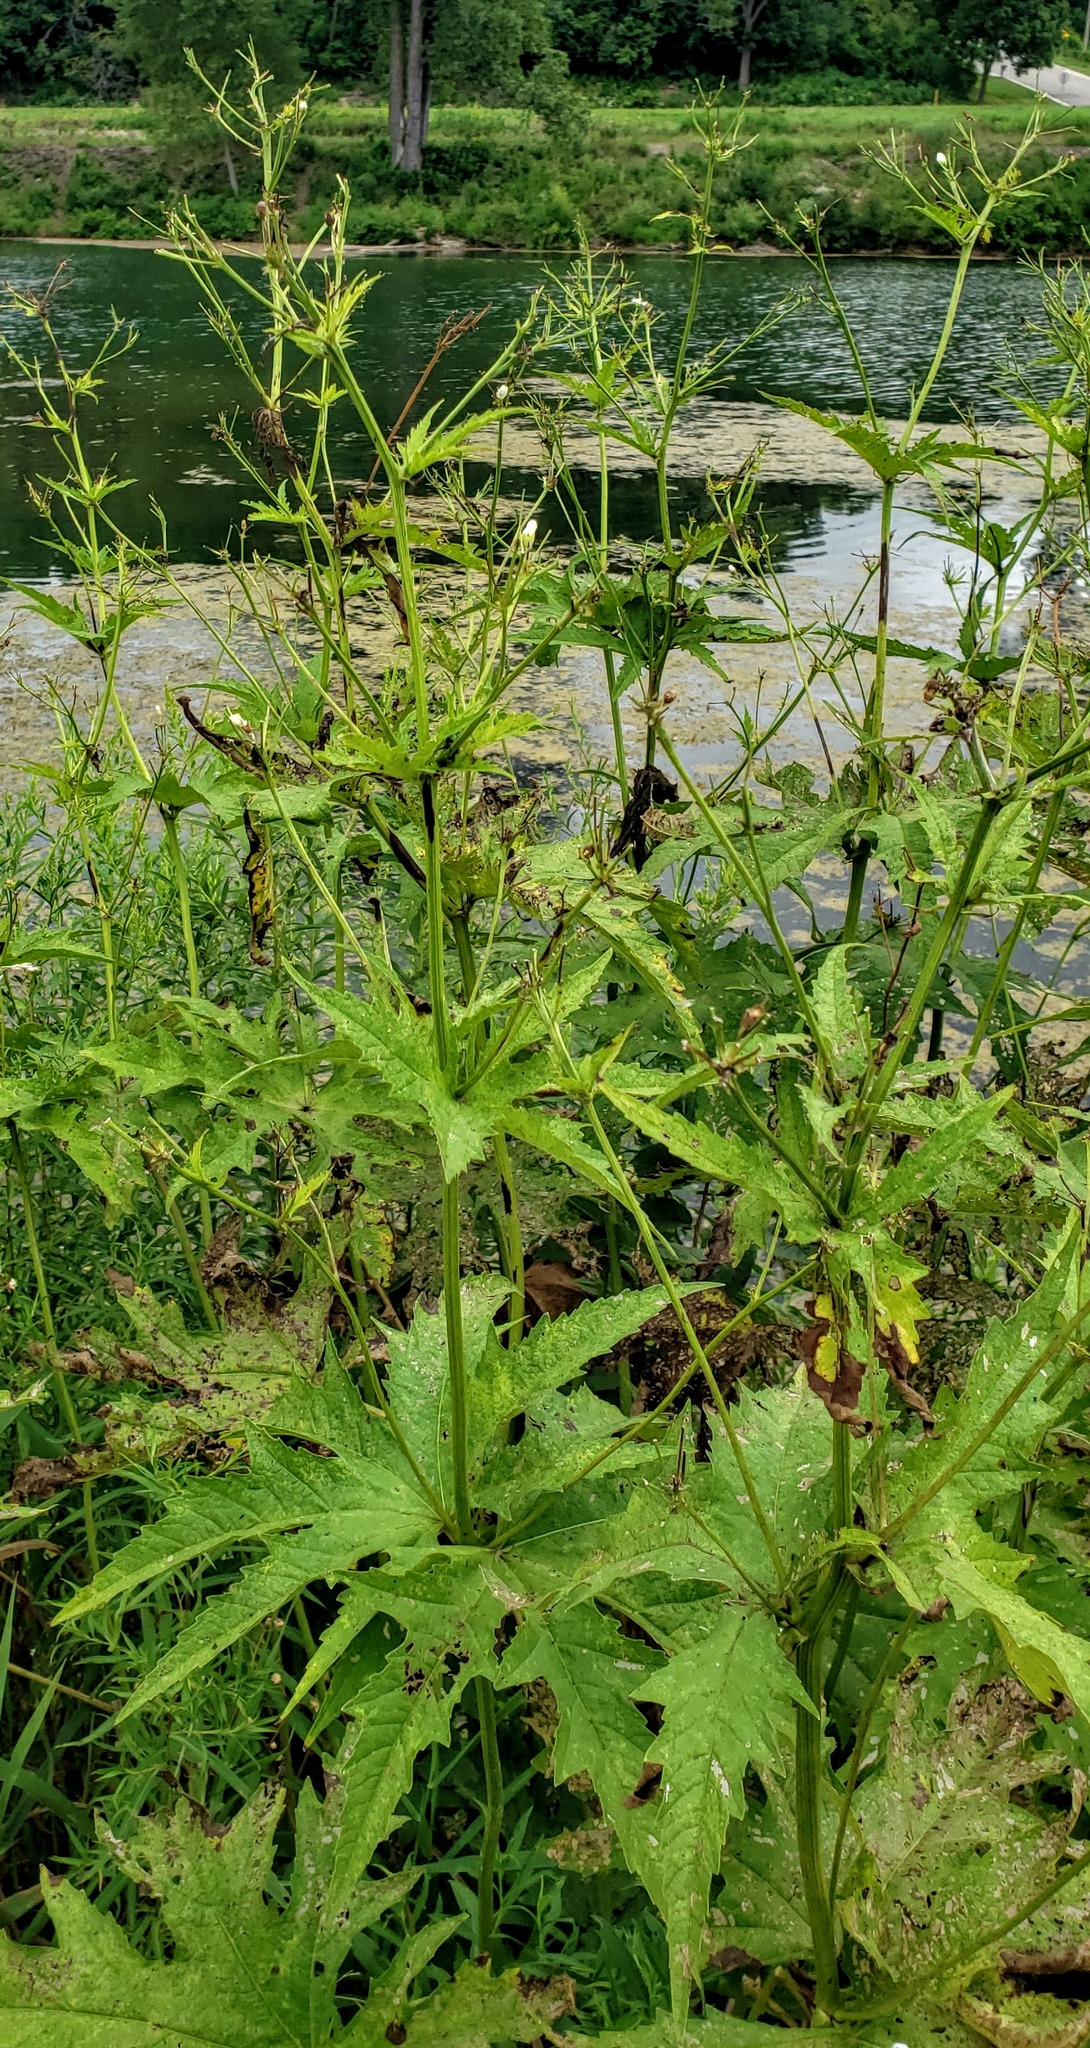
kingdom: Plantae
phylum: Tracheophyta
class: Magnoliopsida
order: Malvales
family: Malvaceae
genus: Napaea
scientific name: Napaea dioica
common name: Glade-mallow
